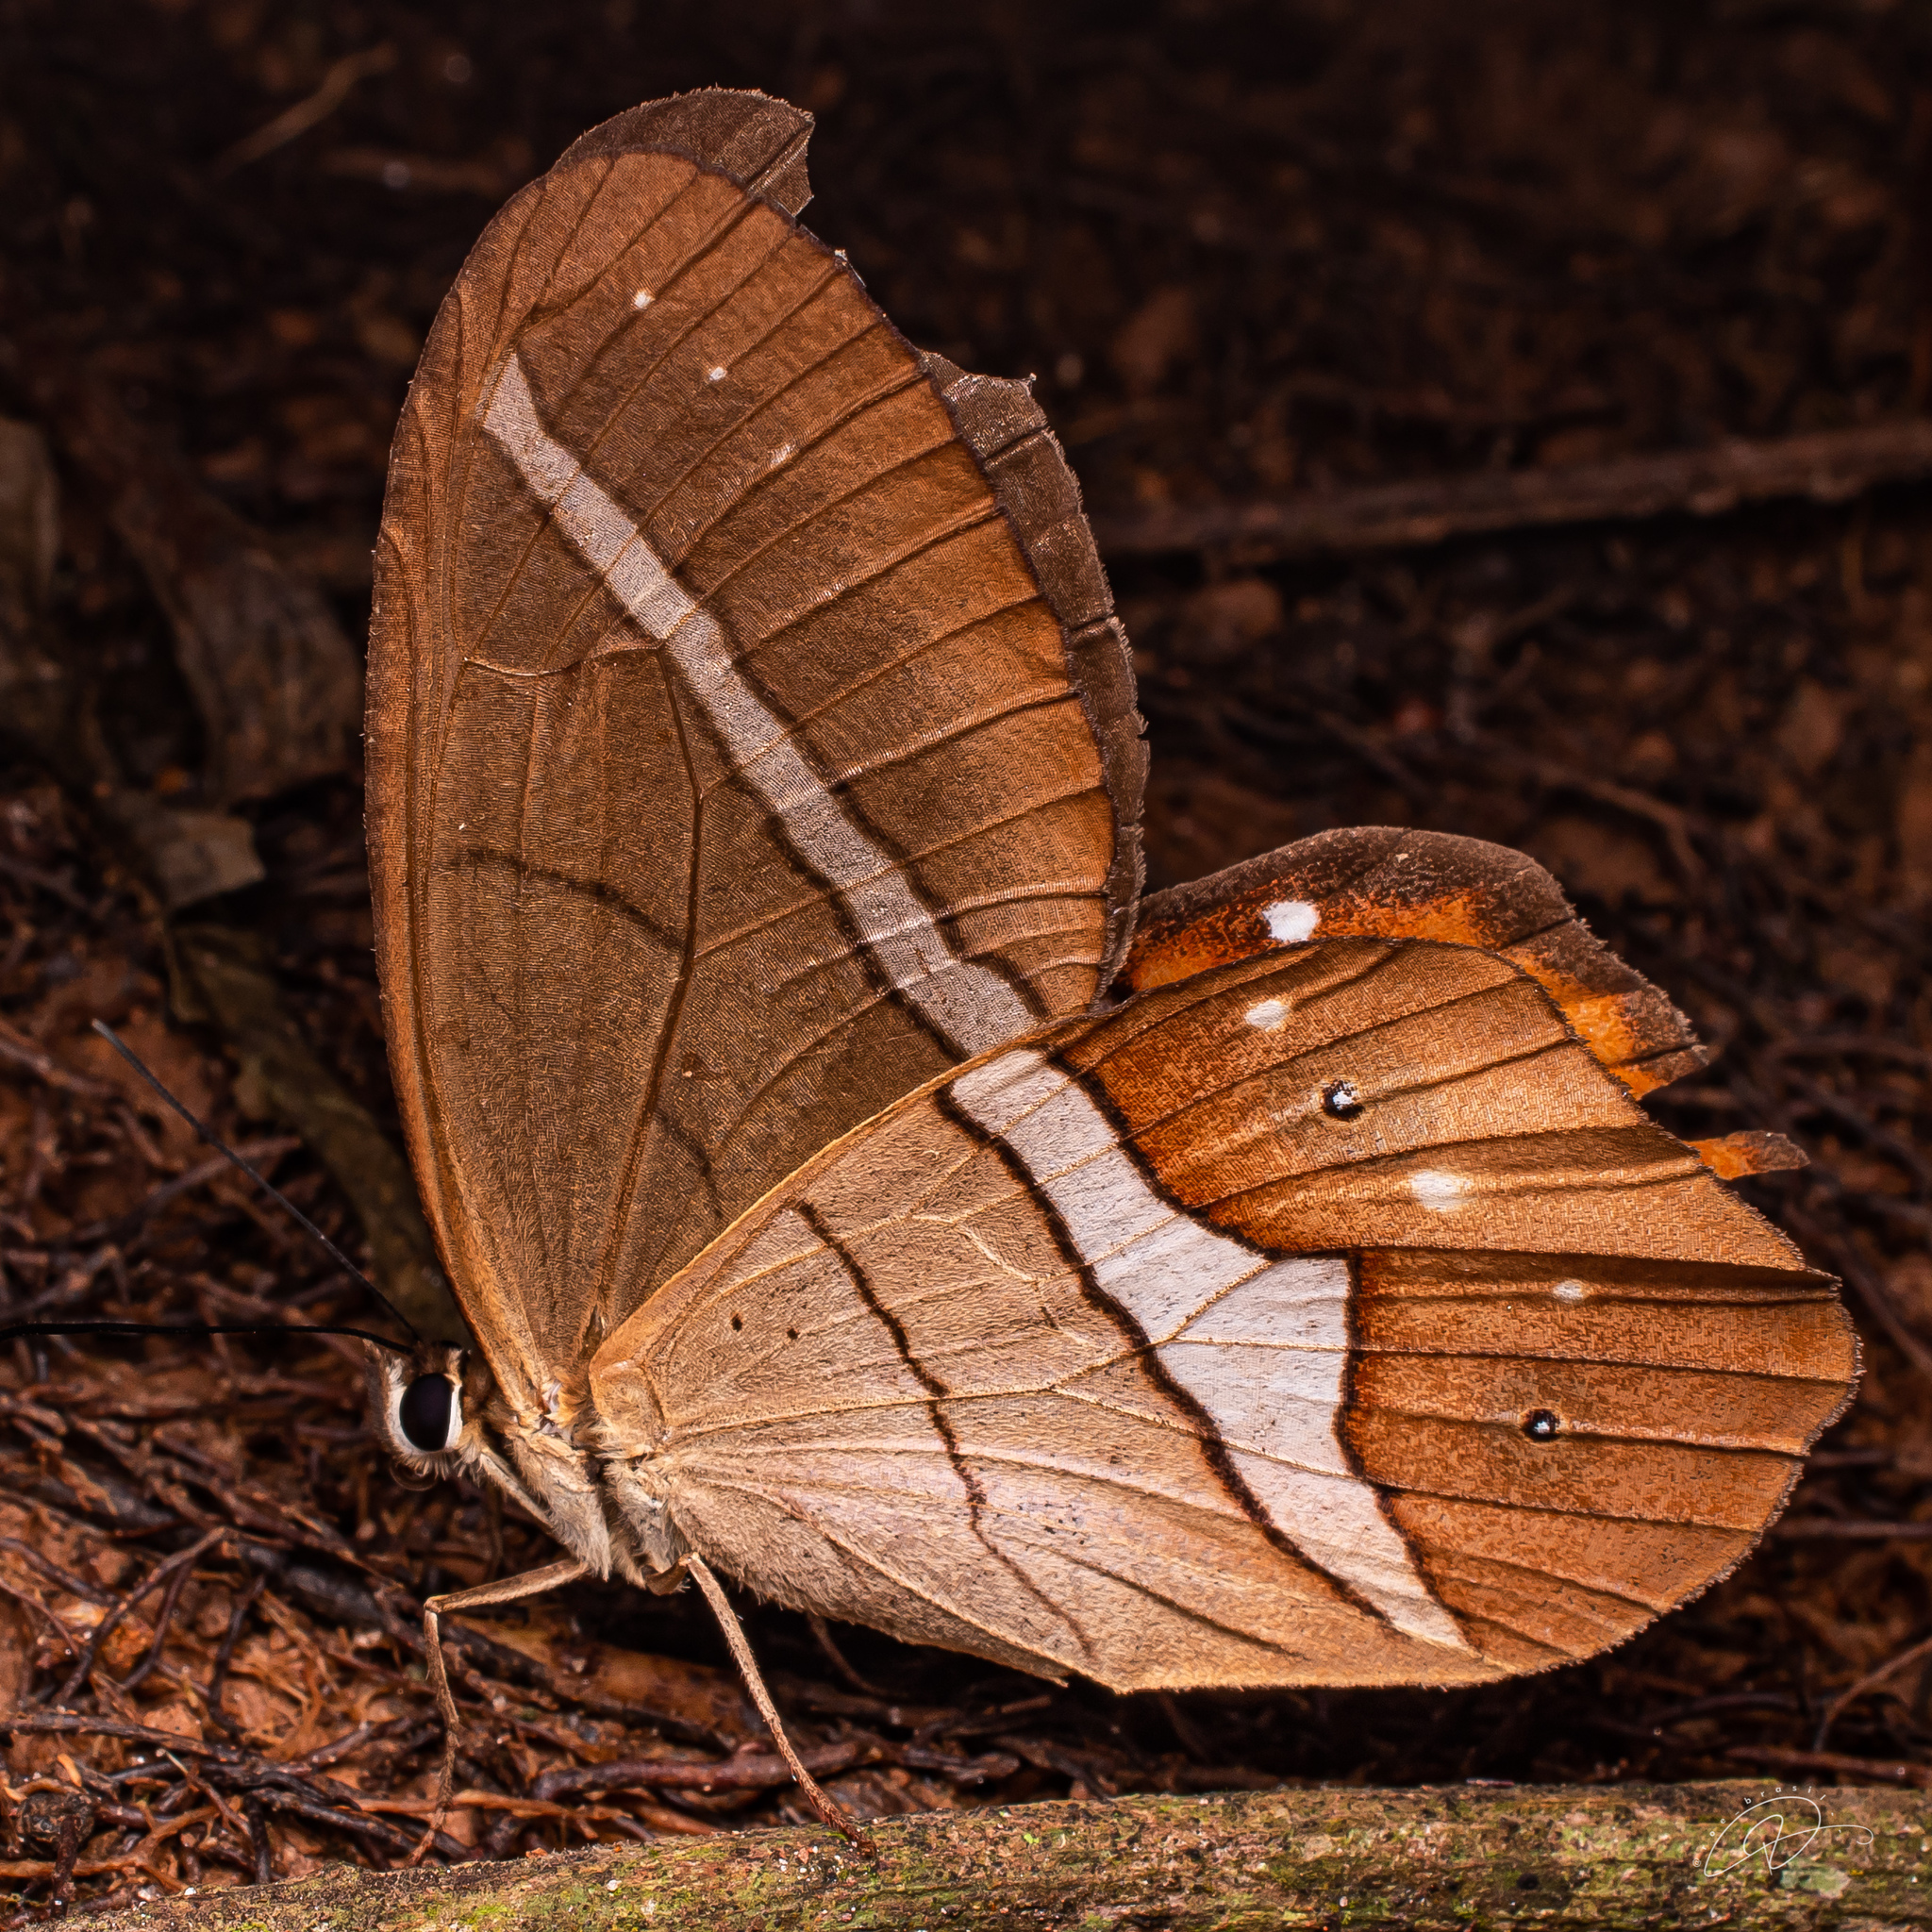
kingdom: Animalia
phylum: Arthropoda
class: Insecta
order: Lepidoptera
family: Nymphalidae
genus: Pierella
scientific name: Pierella nereis
